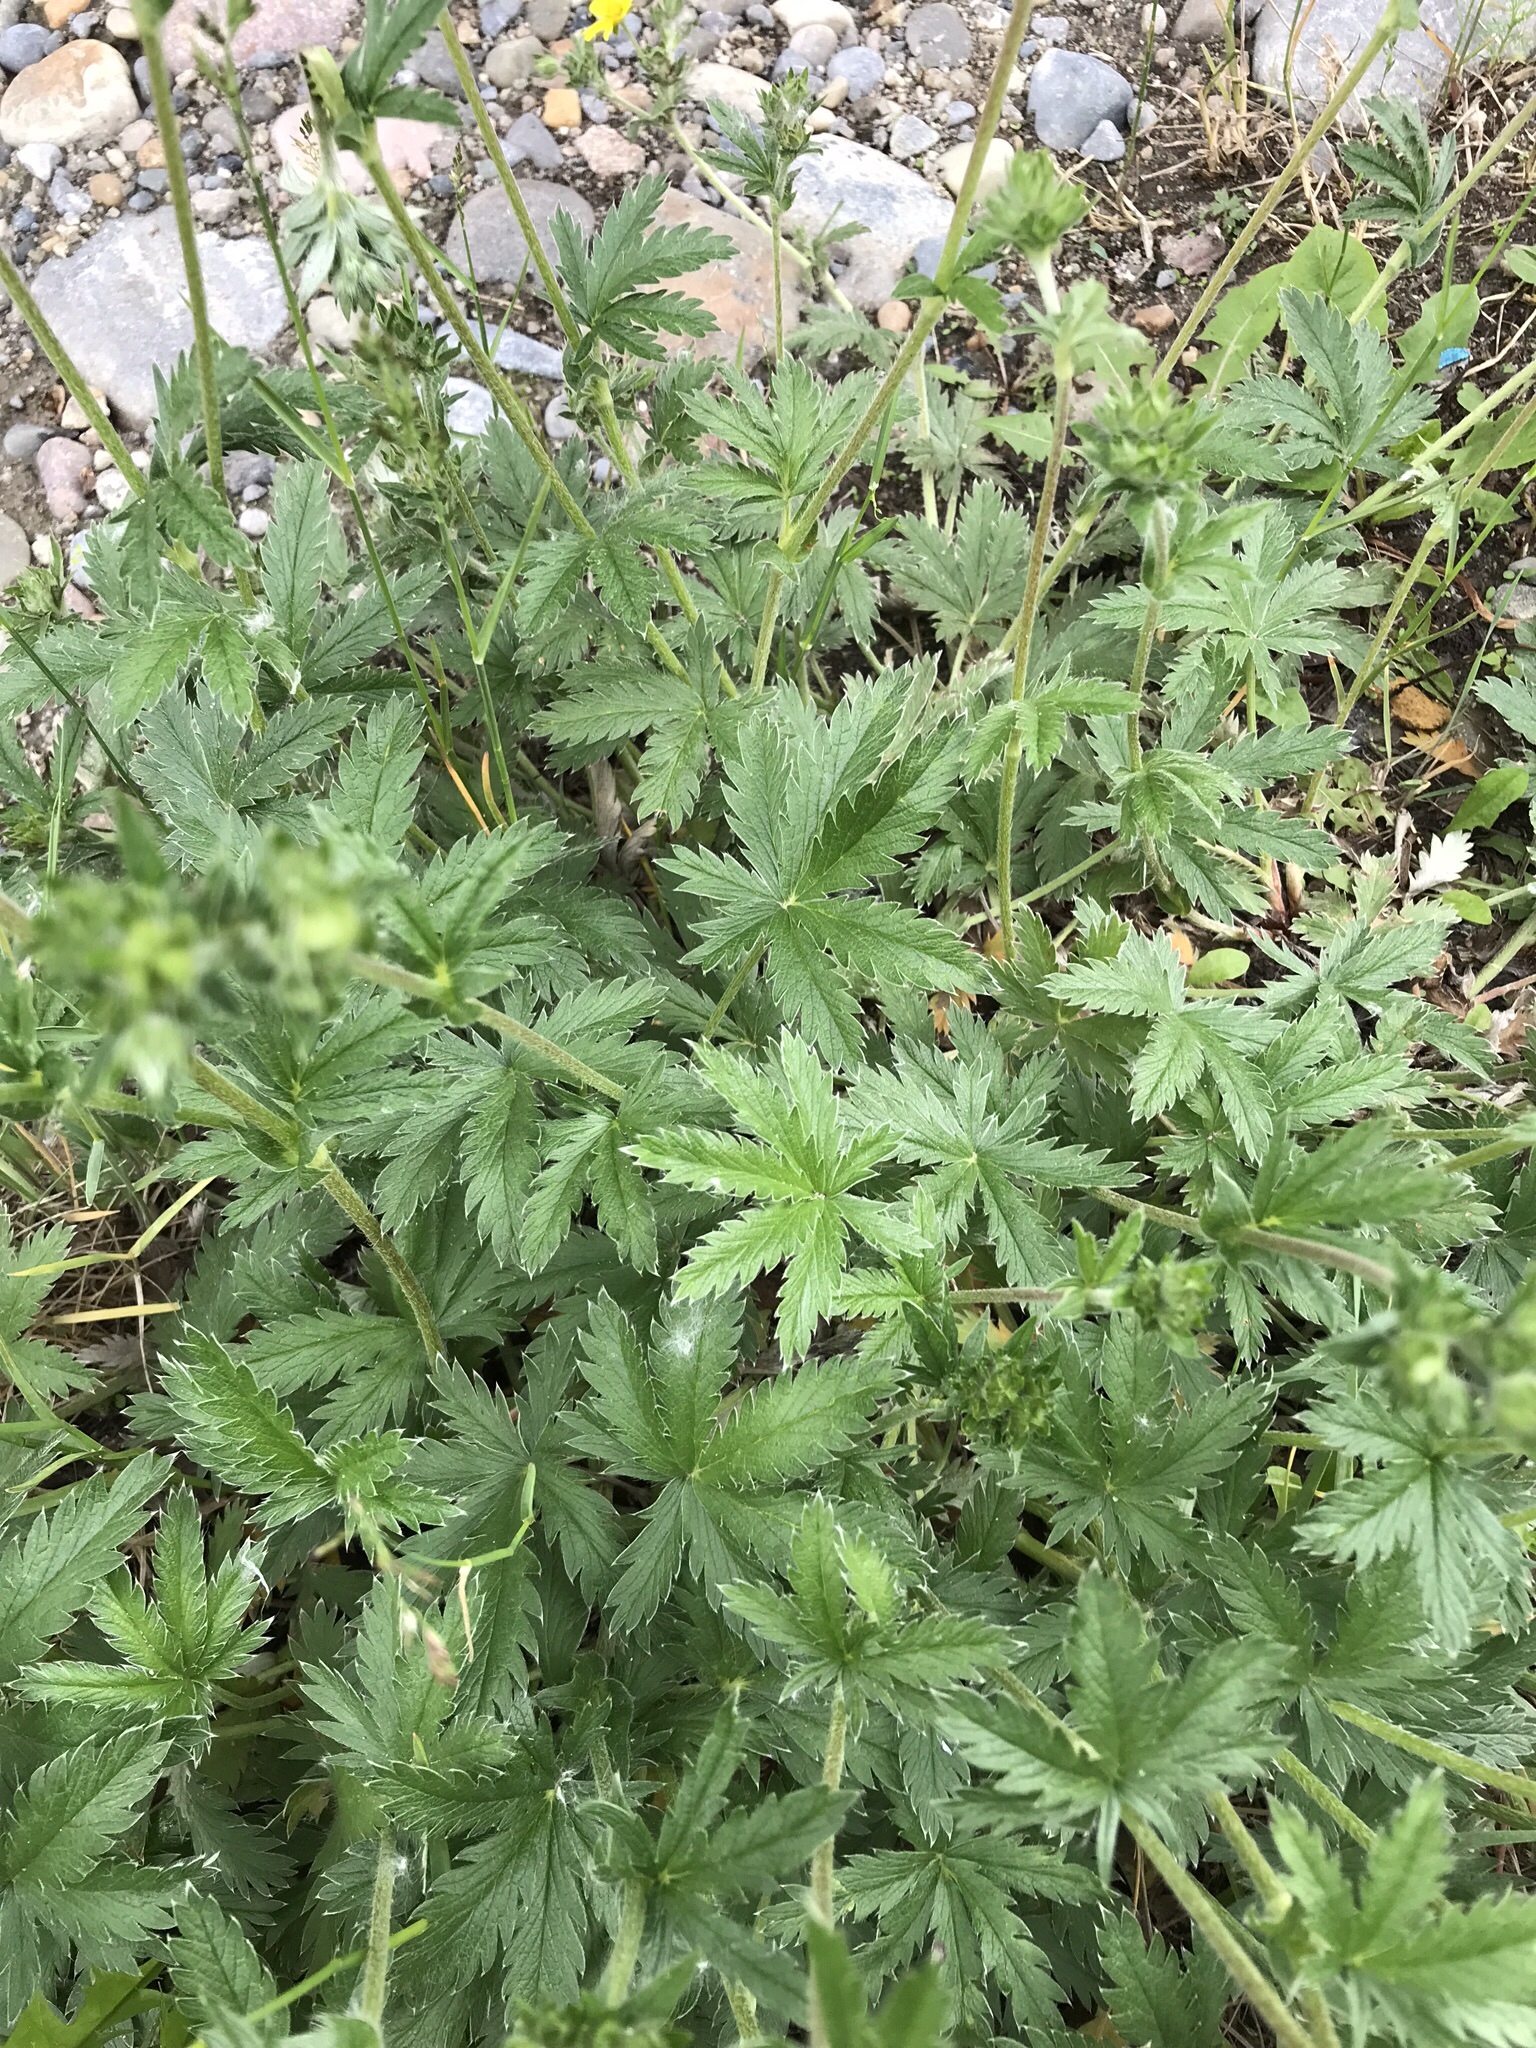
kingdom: Plantae
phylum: Tracheophyta
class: Magnoliopsida
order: Rosales
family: Rosaceae
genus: Potentilla
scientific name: Potentilla gracilis
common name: Graceful cinquefoil
